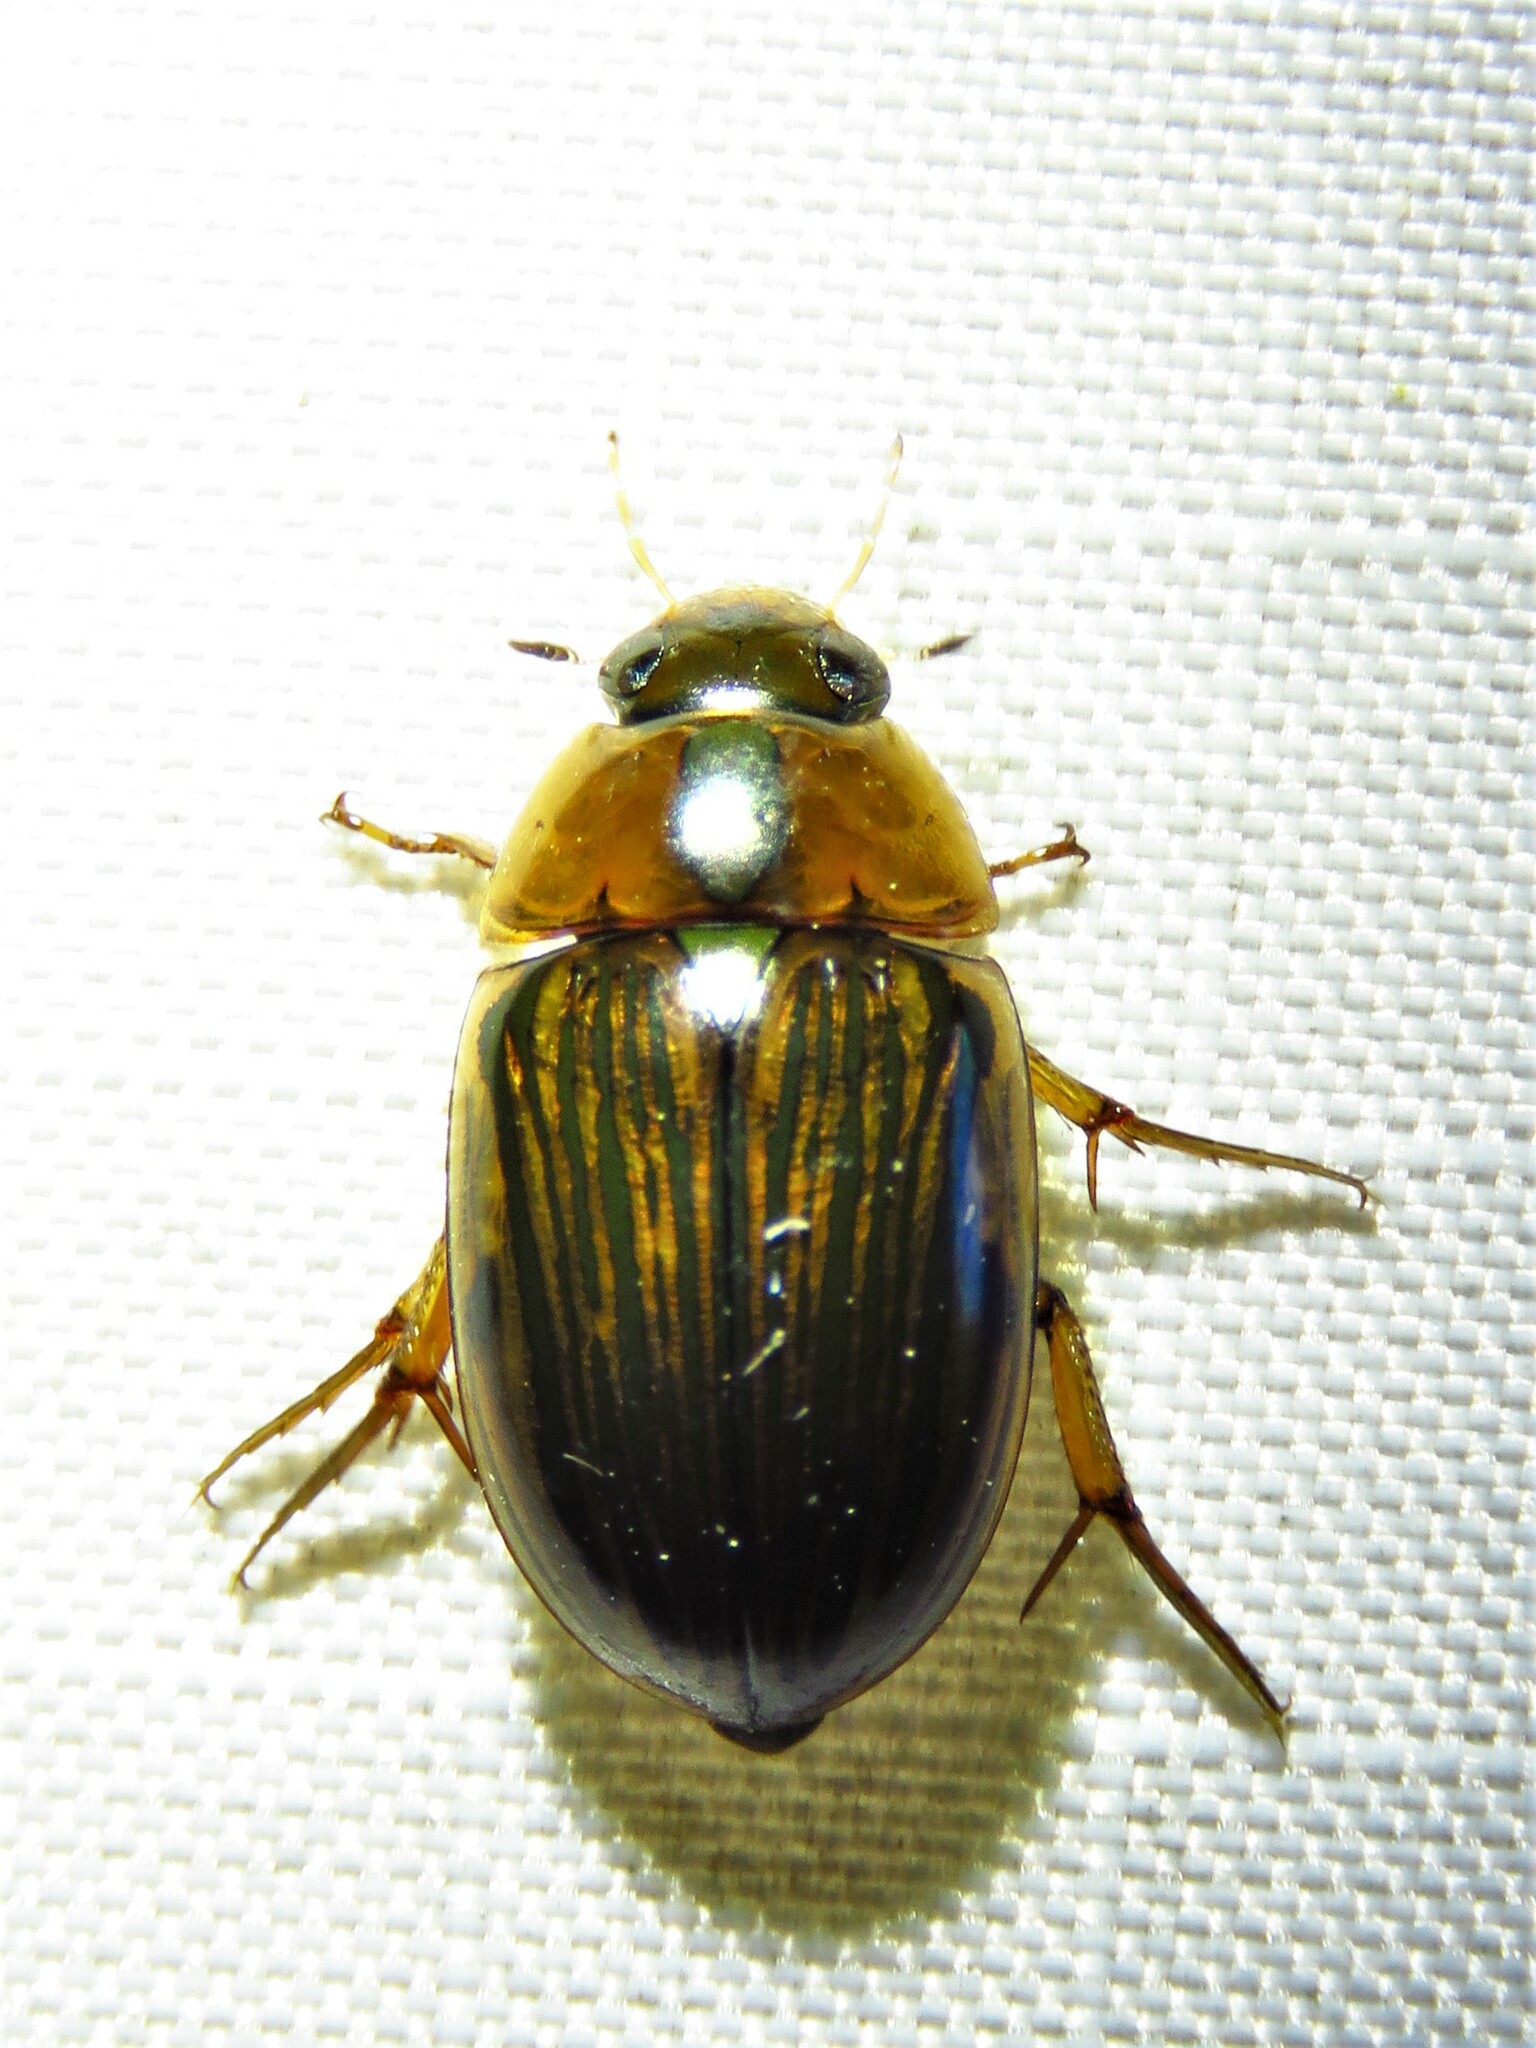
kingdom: Animalia
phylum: Arthropoda
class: Insecta
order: Coleoptera
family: Hydrophilidae
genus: Tropisternus
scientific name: Tropisternus collaris
